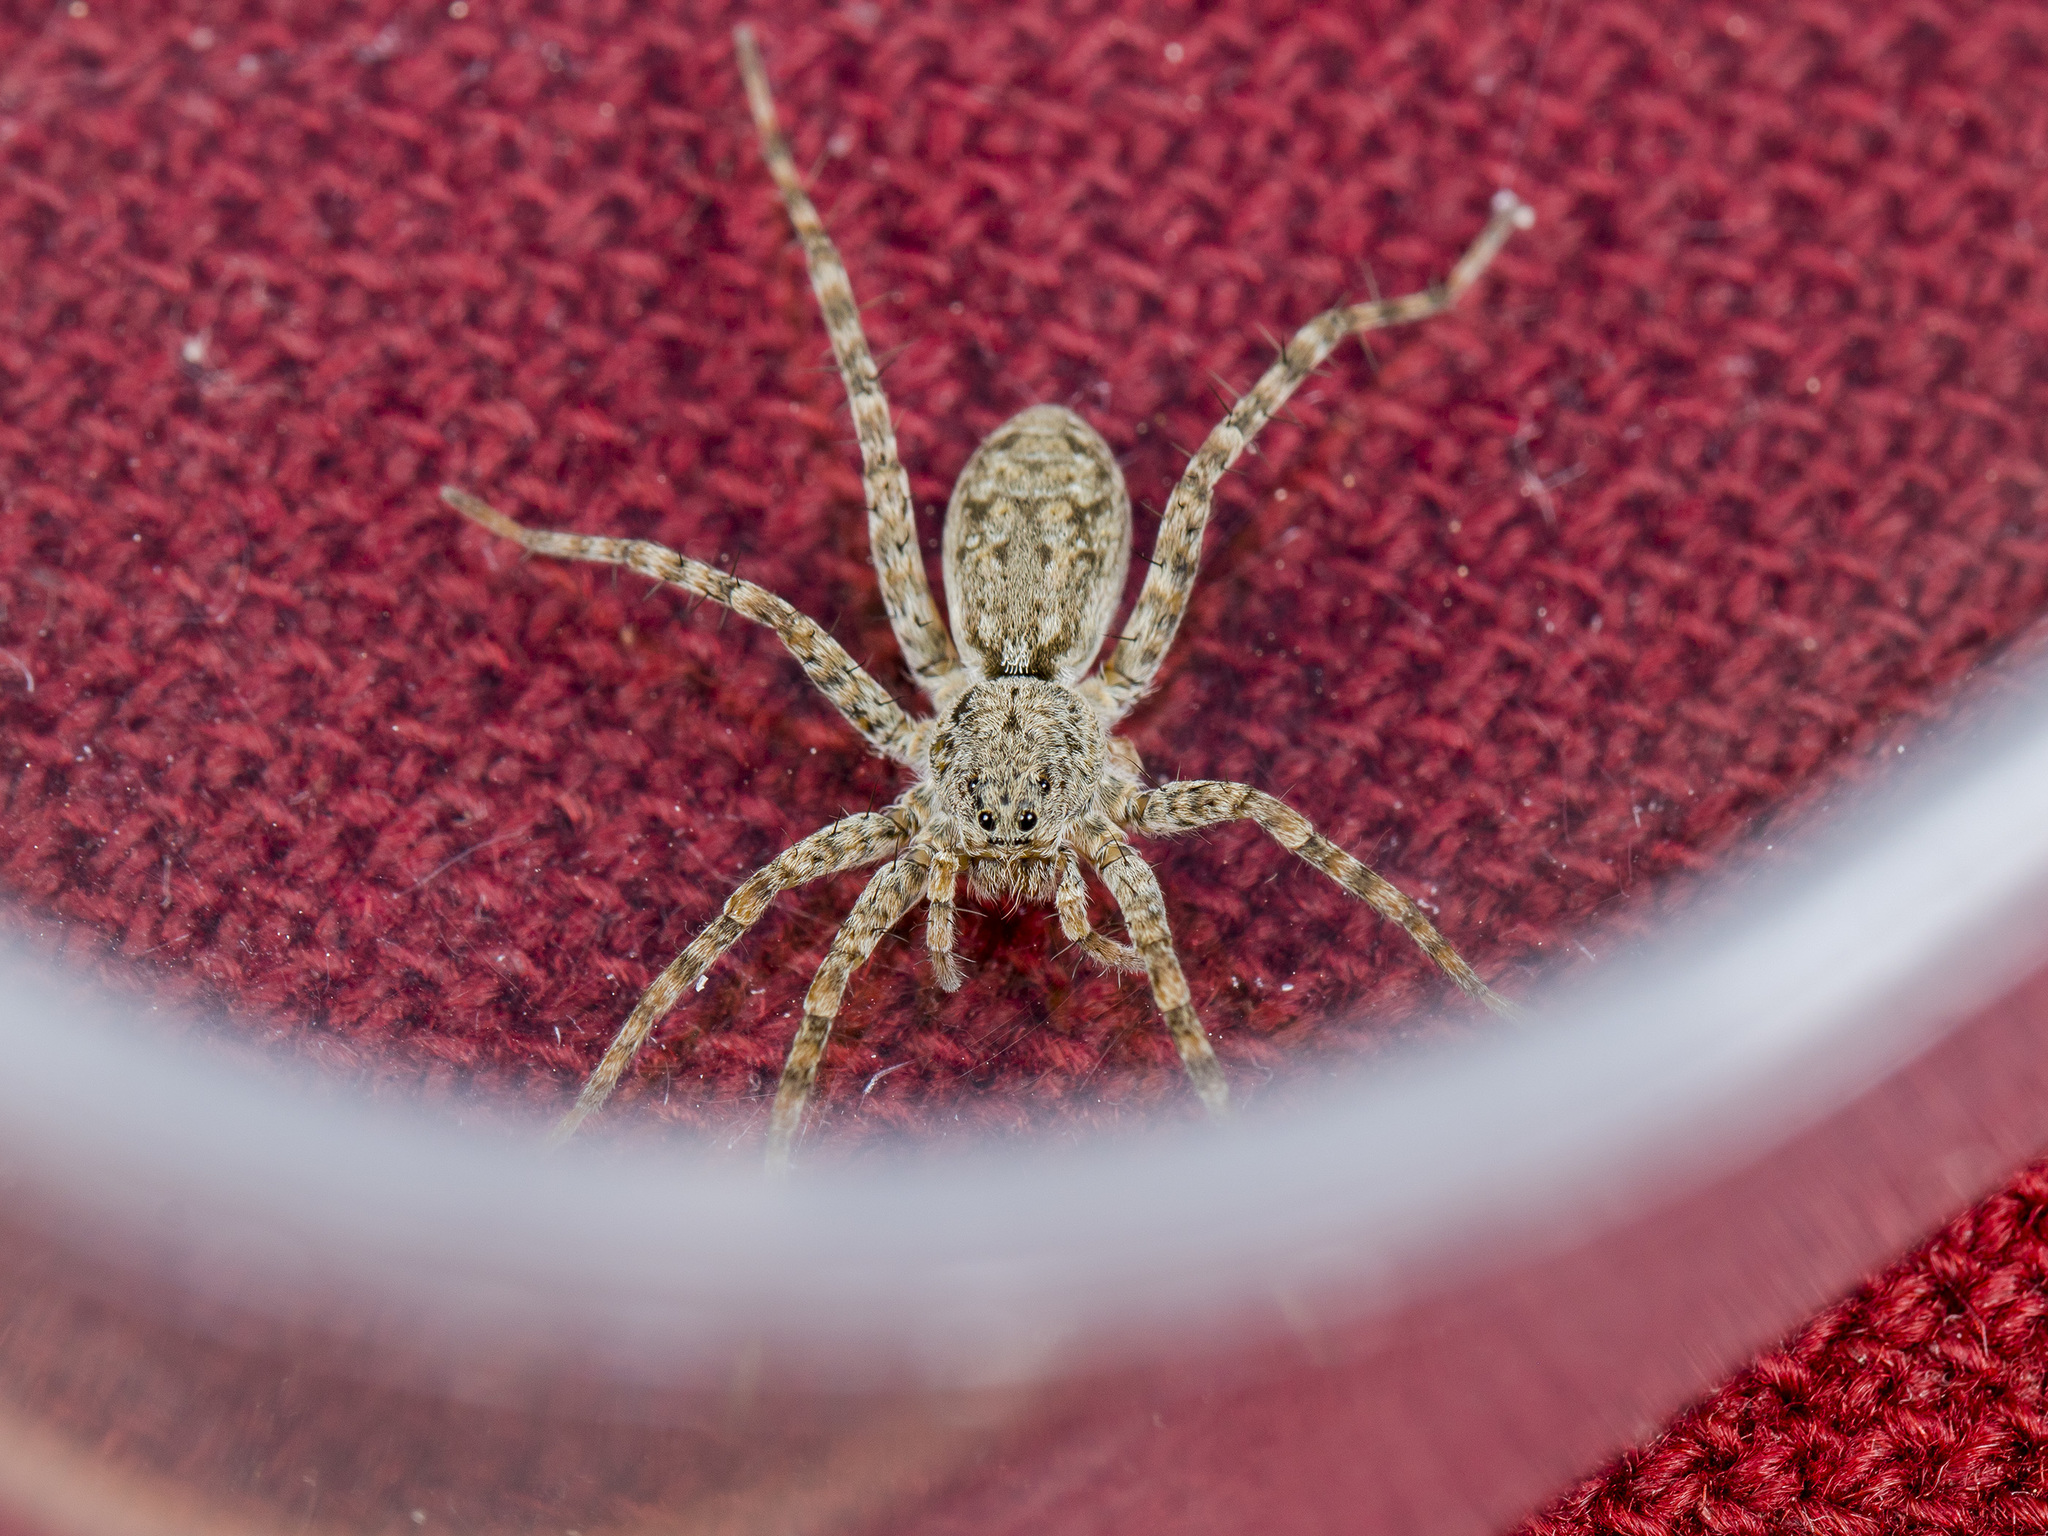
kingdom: Animalia
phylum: Arthropoda
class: Arachnida
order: Araneae
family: Lycosidae
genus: Pardosa
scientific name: Pardosa nebulosa
